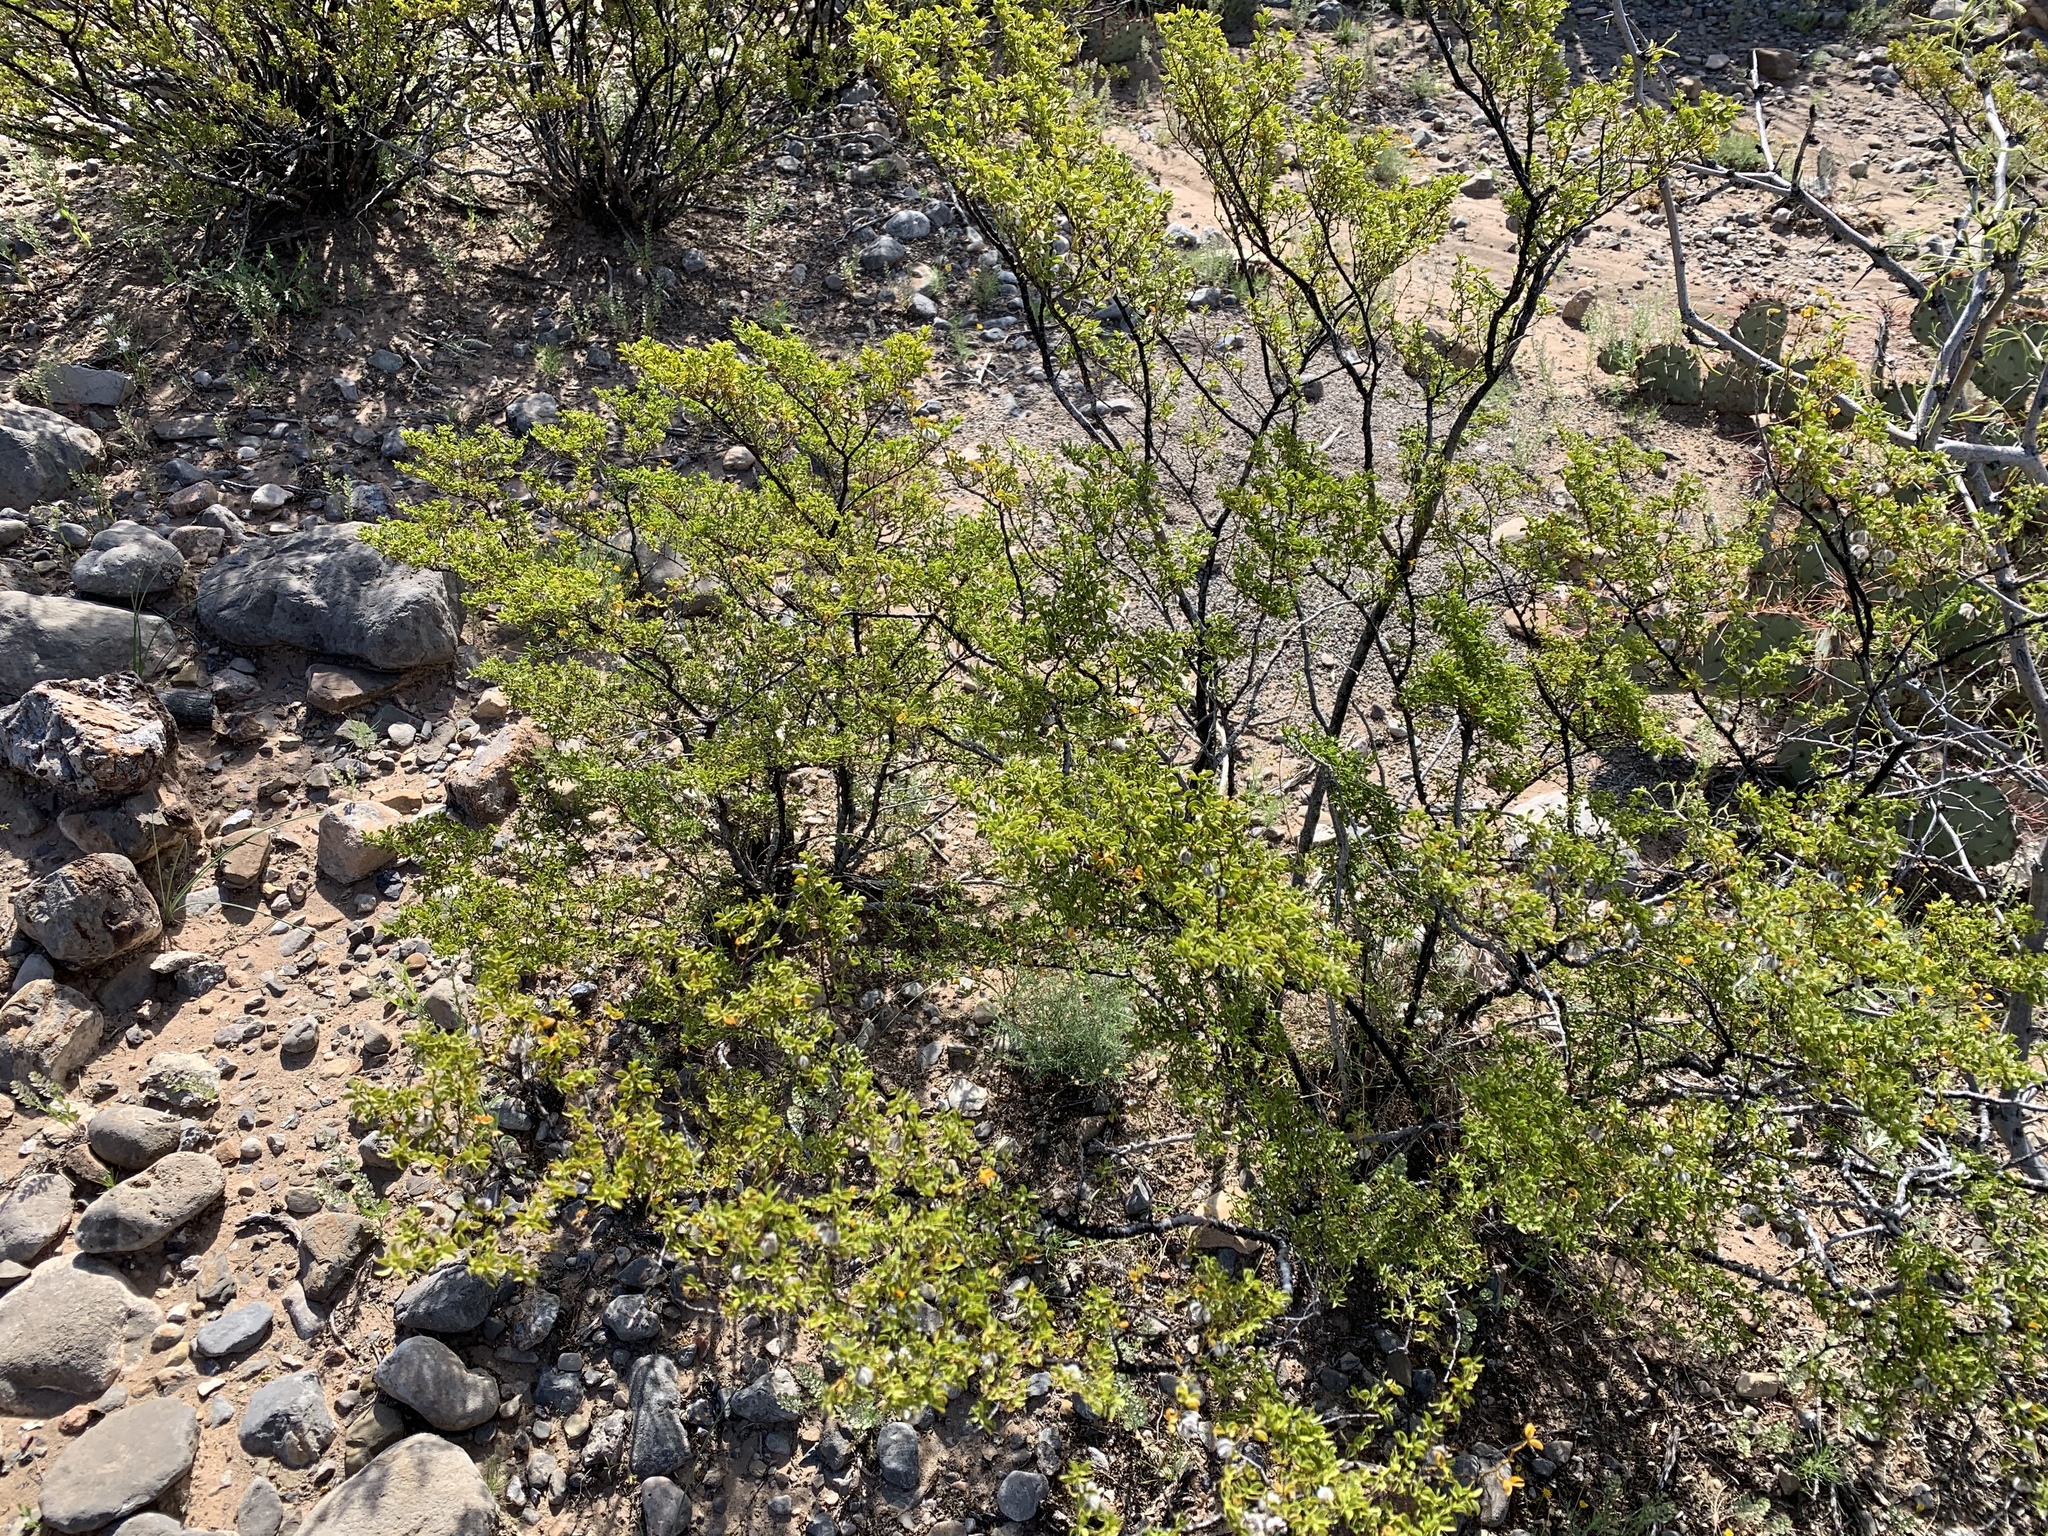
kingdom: Plantae
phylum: Tracheophyta
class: Magnoliopsida
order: Zygophyllales
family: Zygophyllaceae
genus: Larrea
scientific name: Larrea tridentata
